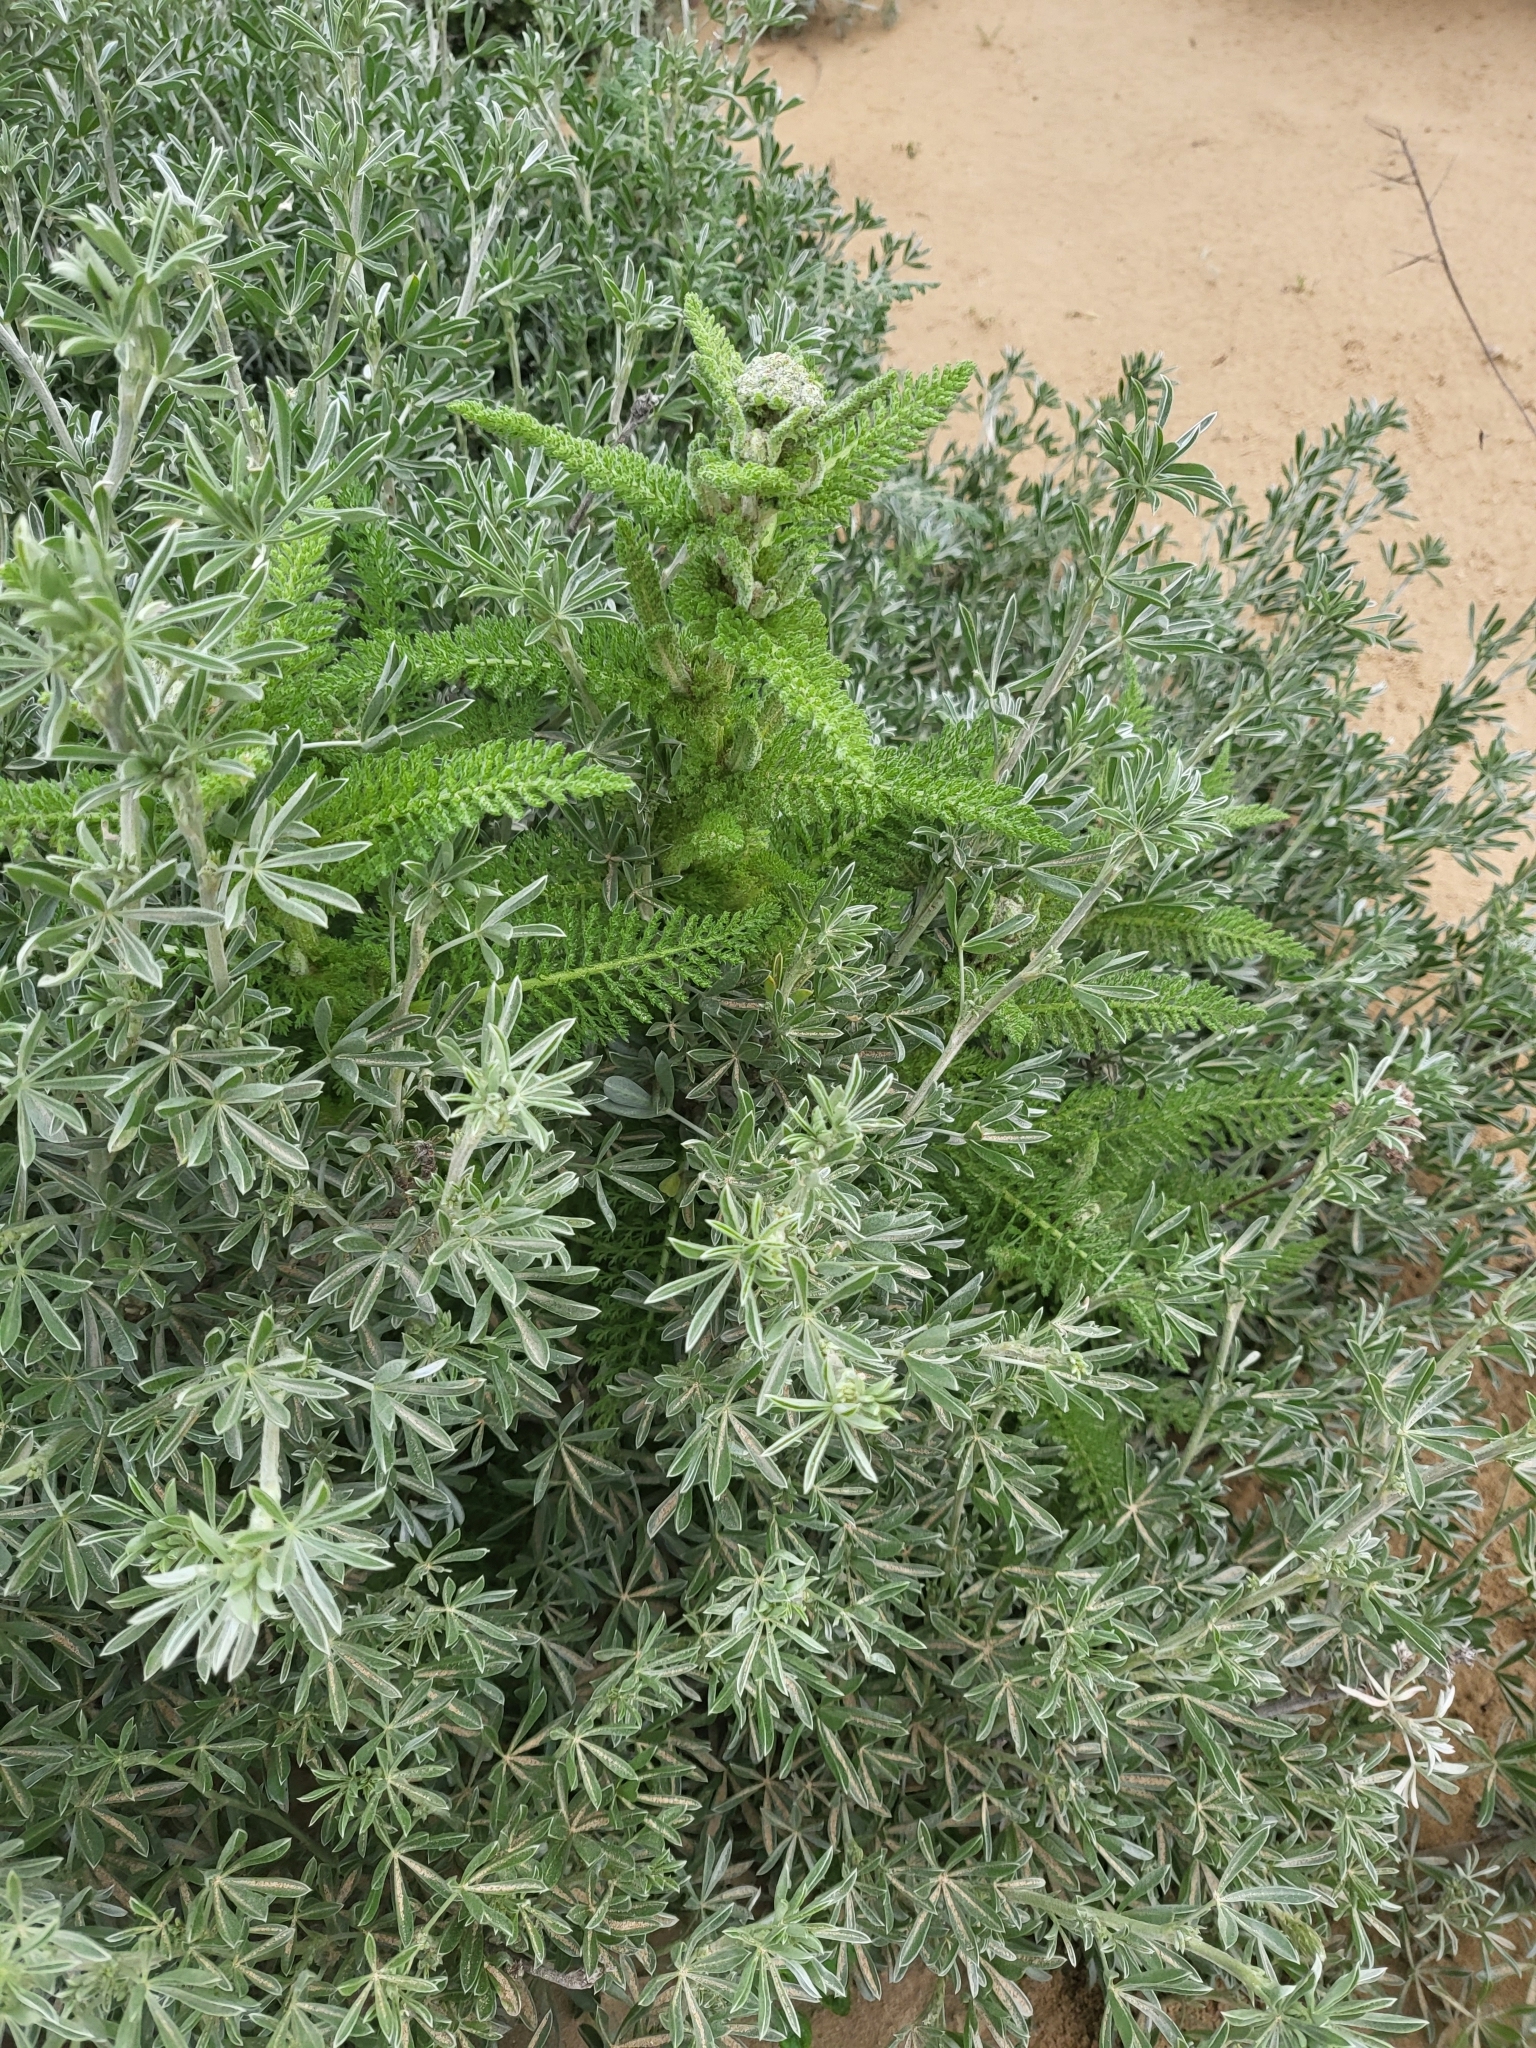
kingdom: Plantae
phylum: Tracheophyta
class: Magnoliopsida
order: Asterales
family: Asteraceae
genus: Achillea
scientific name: Achillea millefolium
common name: Yarrow
